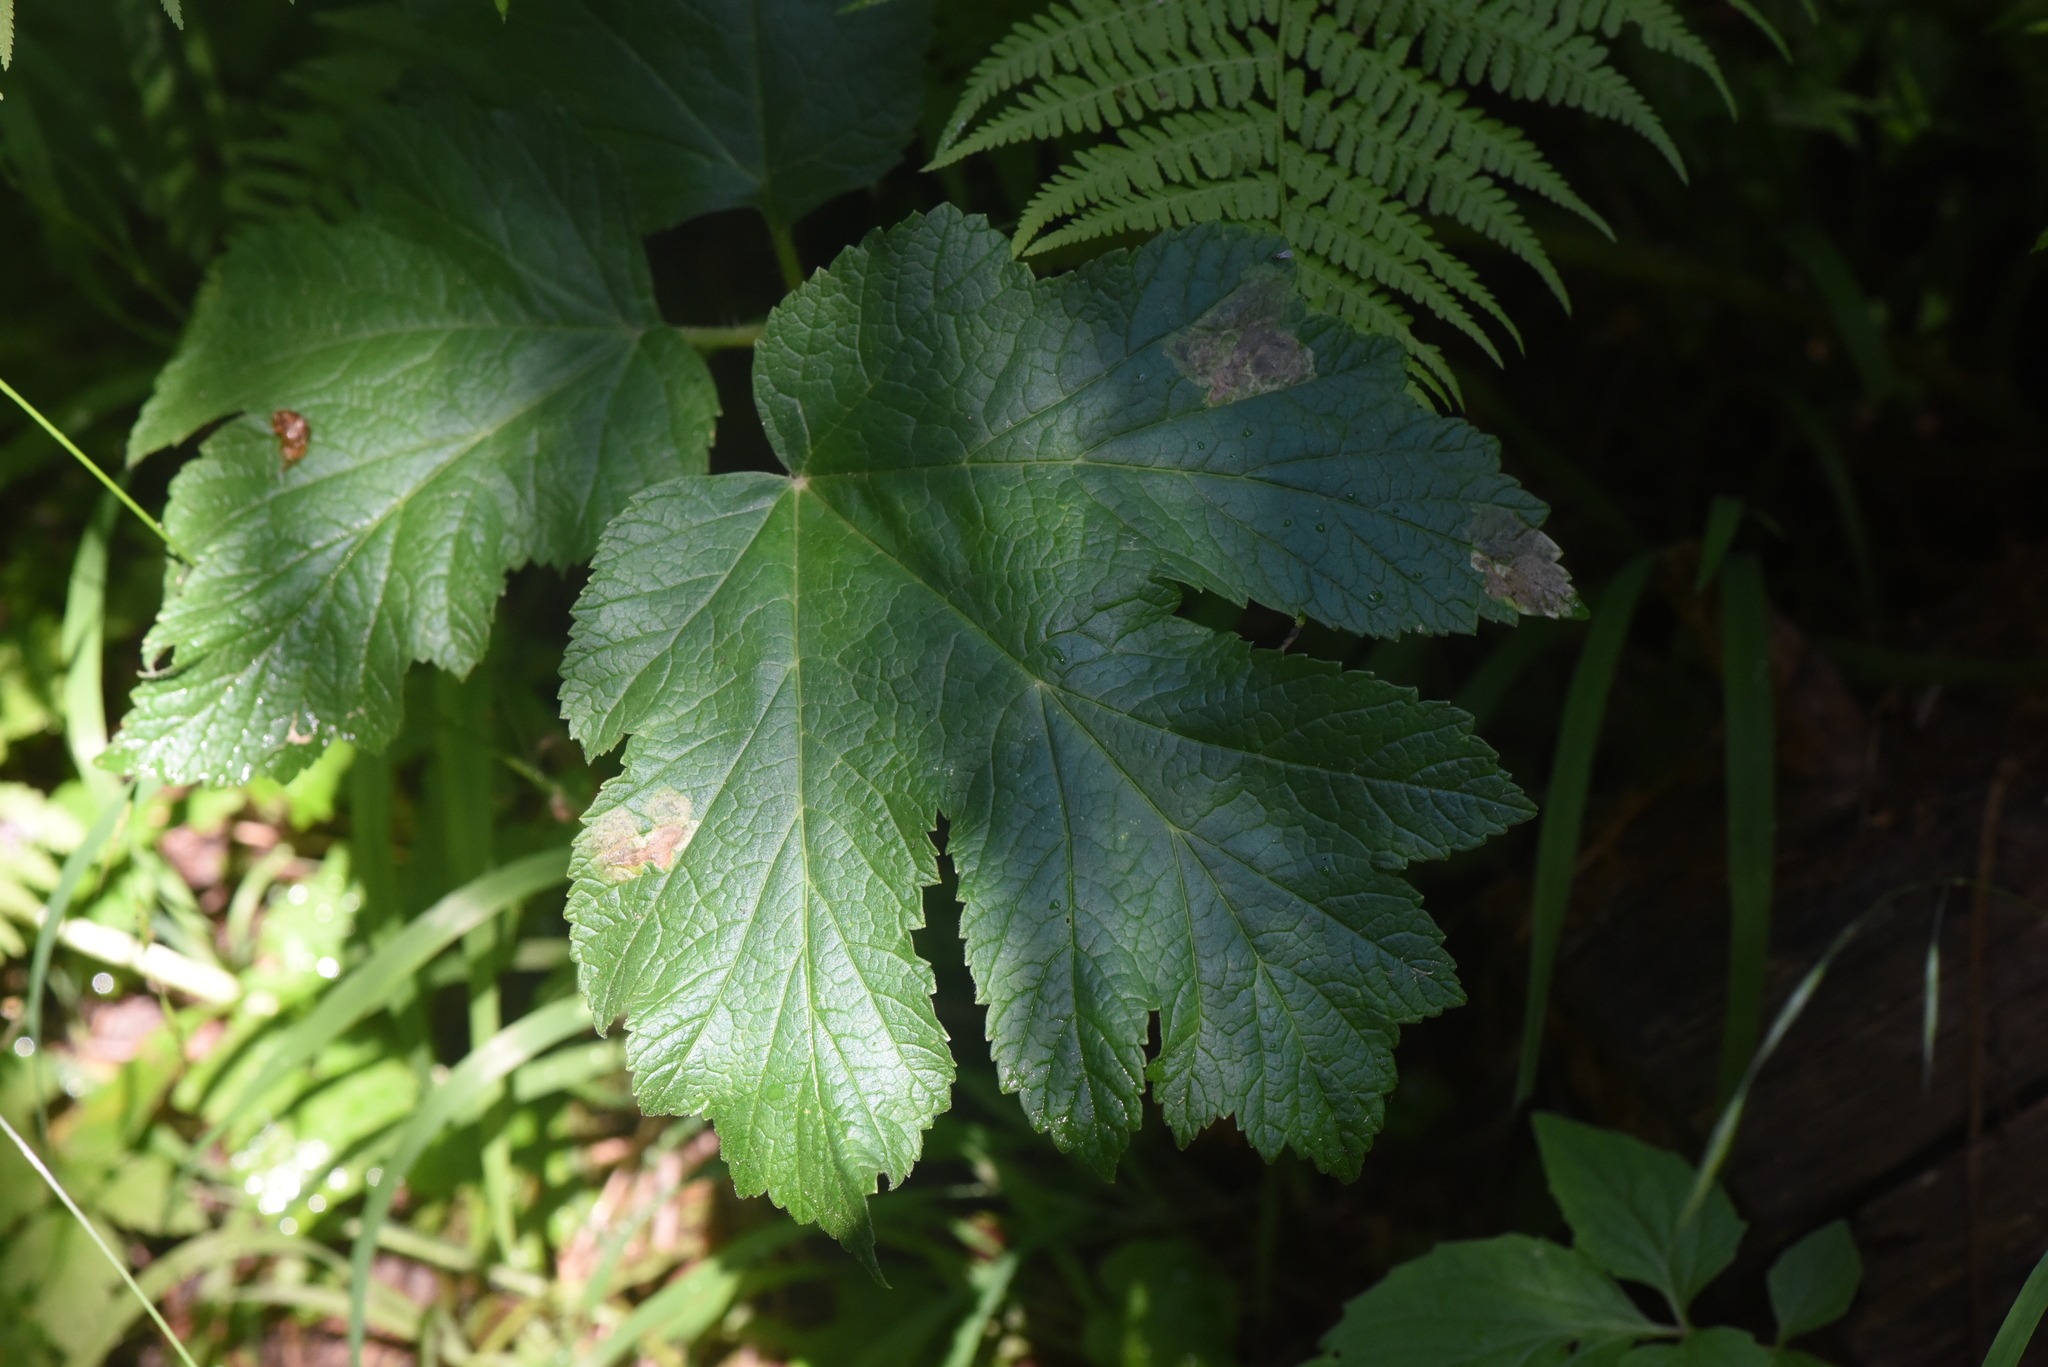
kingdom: Plantae
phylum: Tracheophyta
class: Magnoliopsida
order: Apiales
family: Apiaceae
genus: Heracleum
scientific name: Heracleum maximum
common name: American cow parsnip
